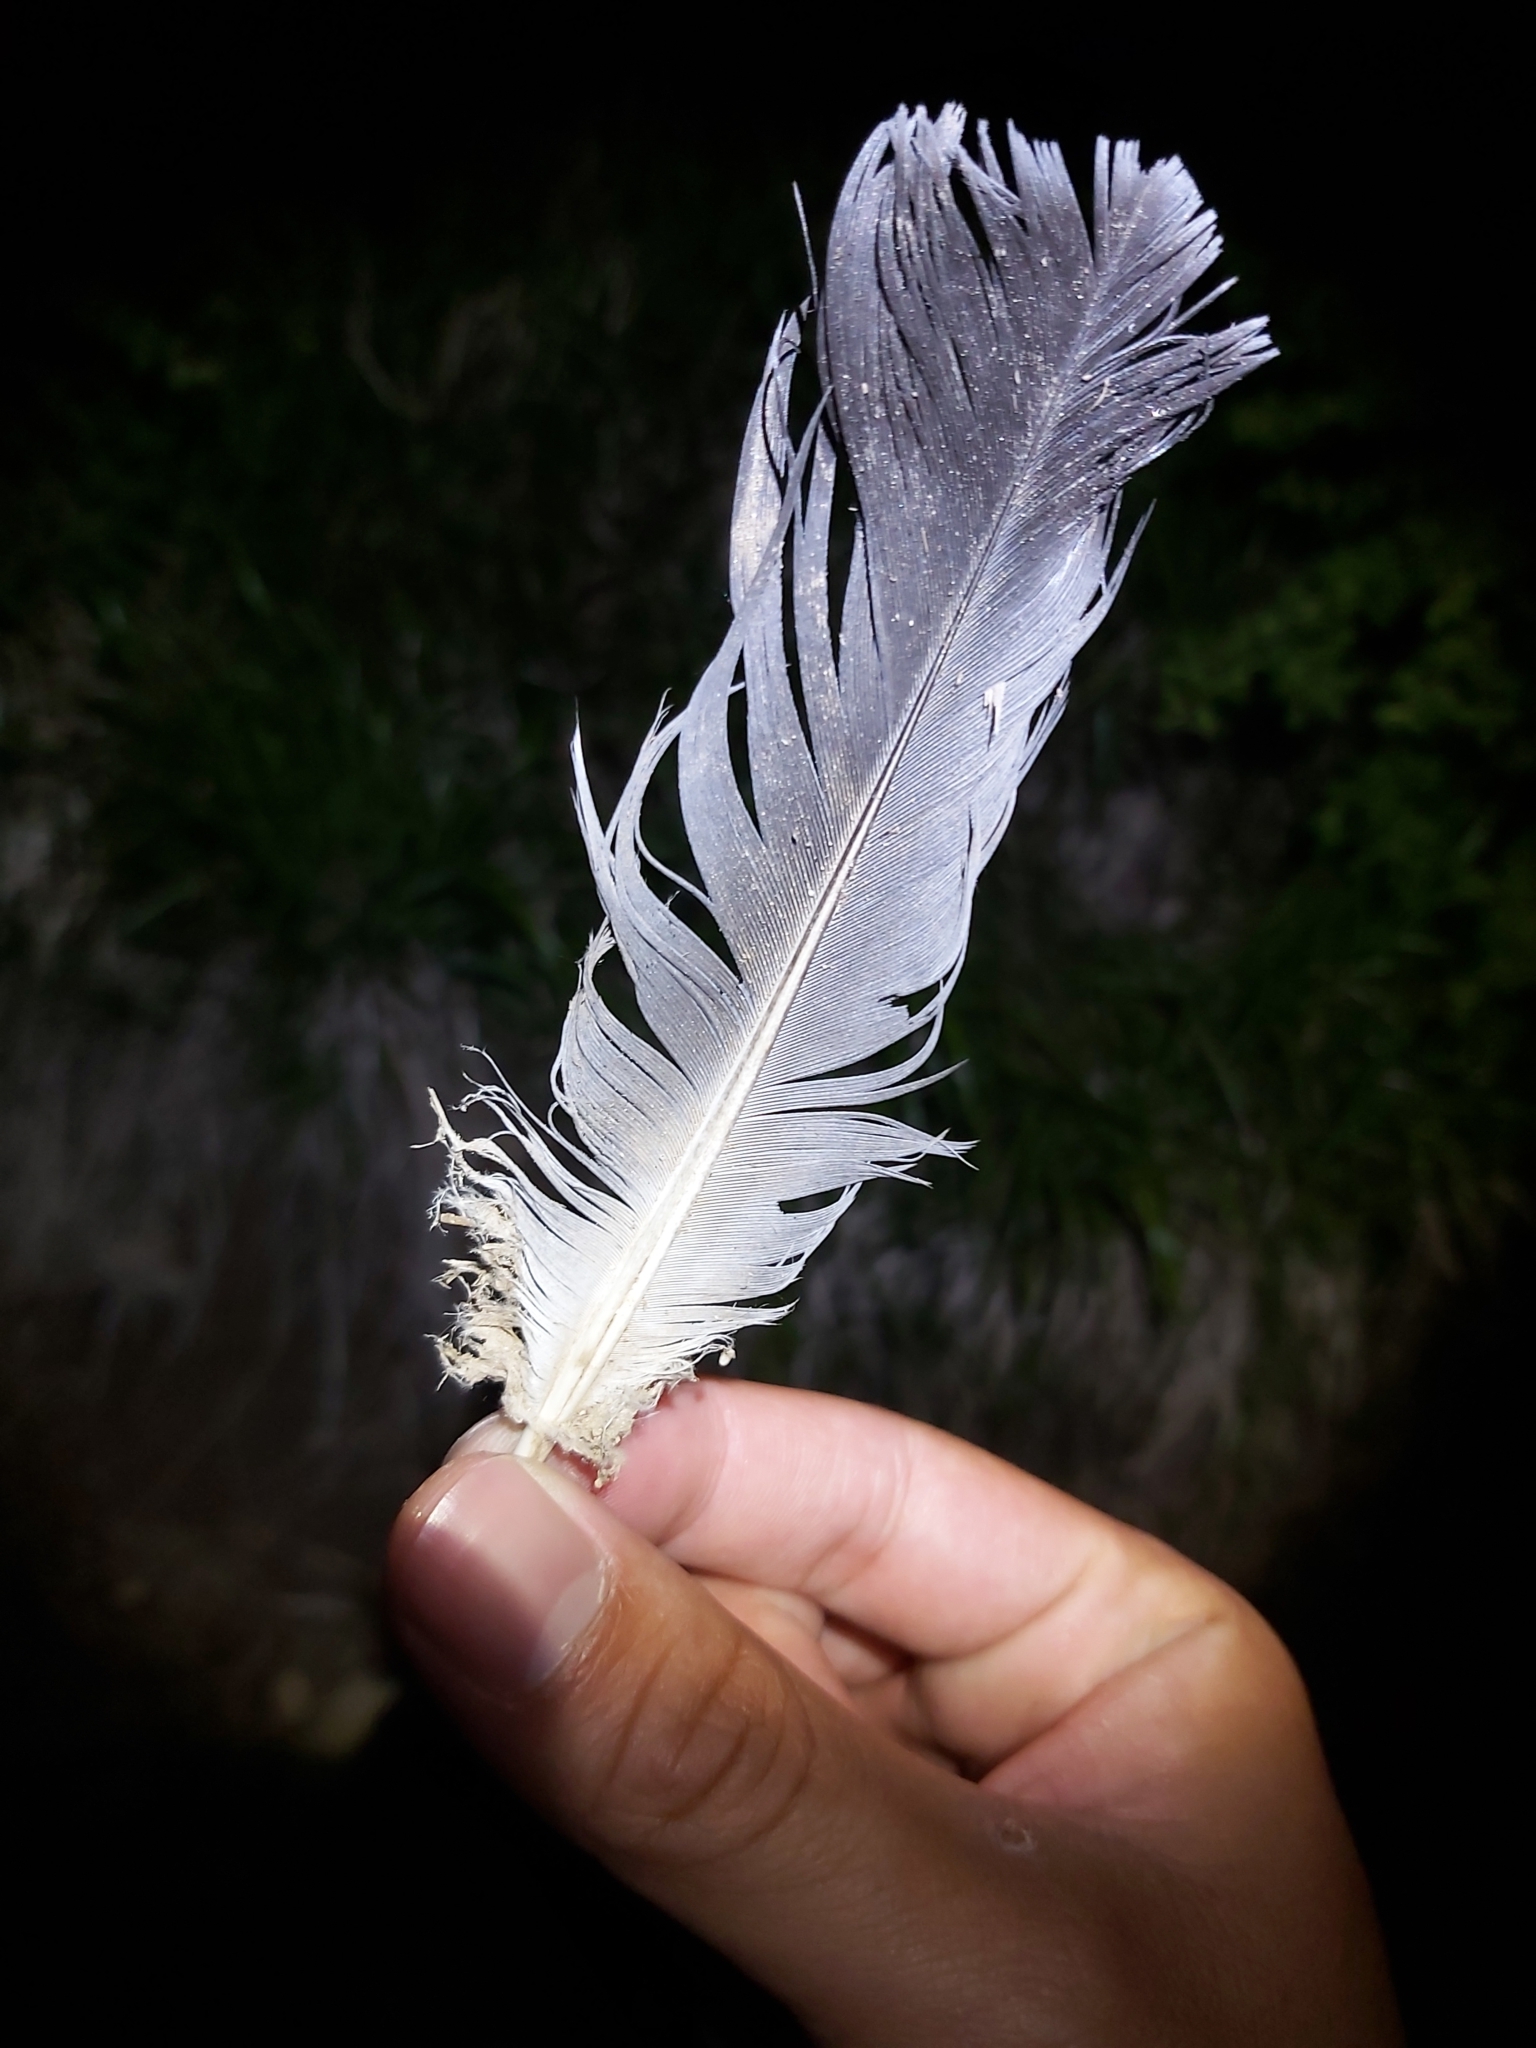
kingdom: Animalia
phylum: Chordata
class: Aves
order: Columbiformes
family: Columbidae
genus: Columba
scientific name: Columba livia
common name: Rock pigeon
